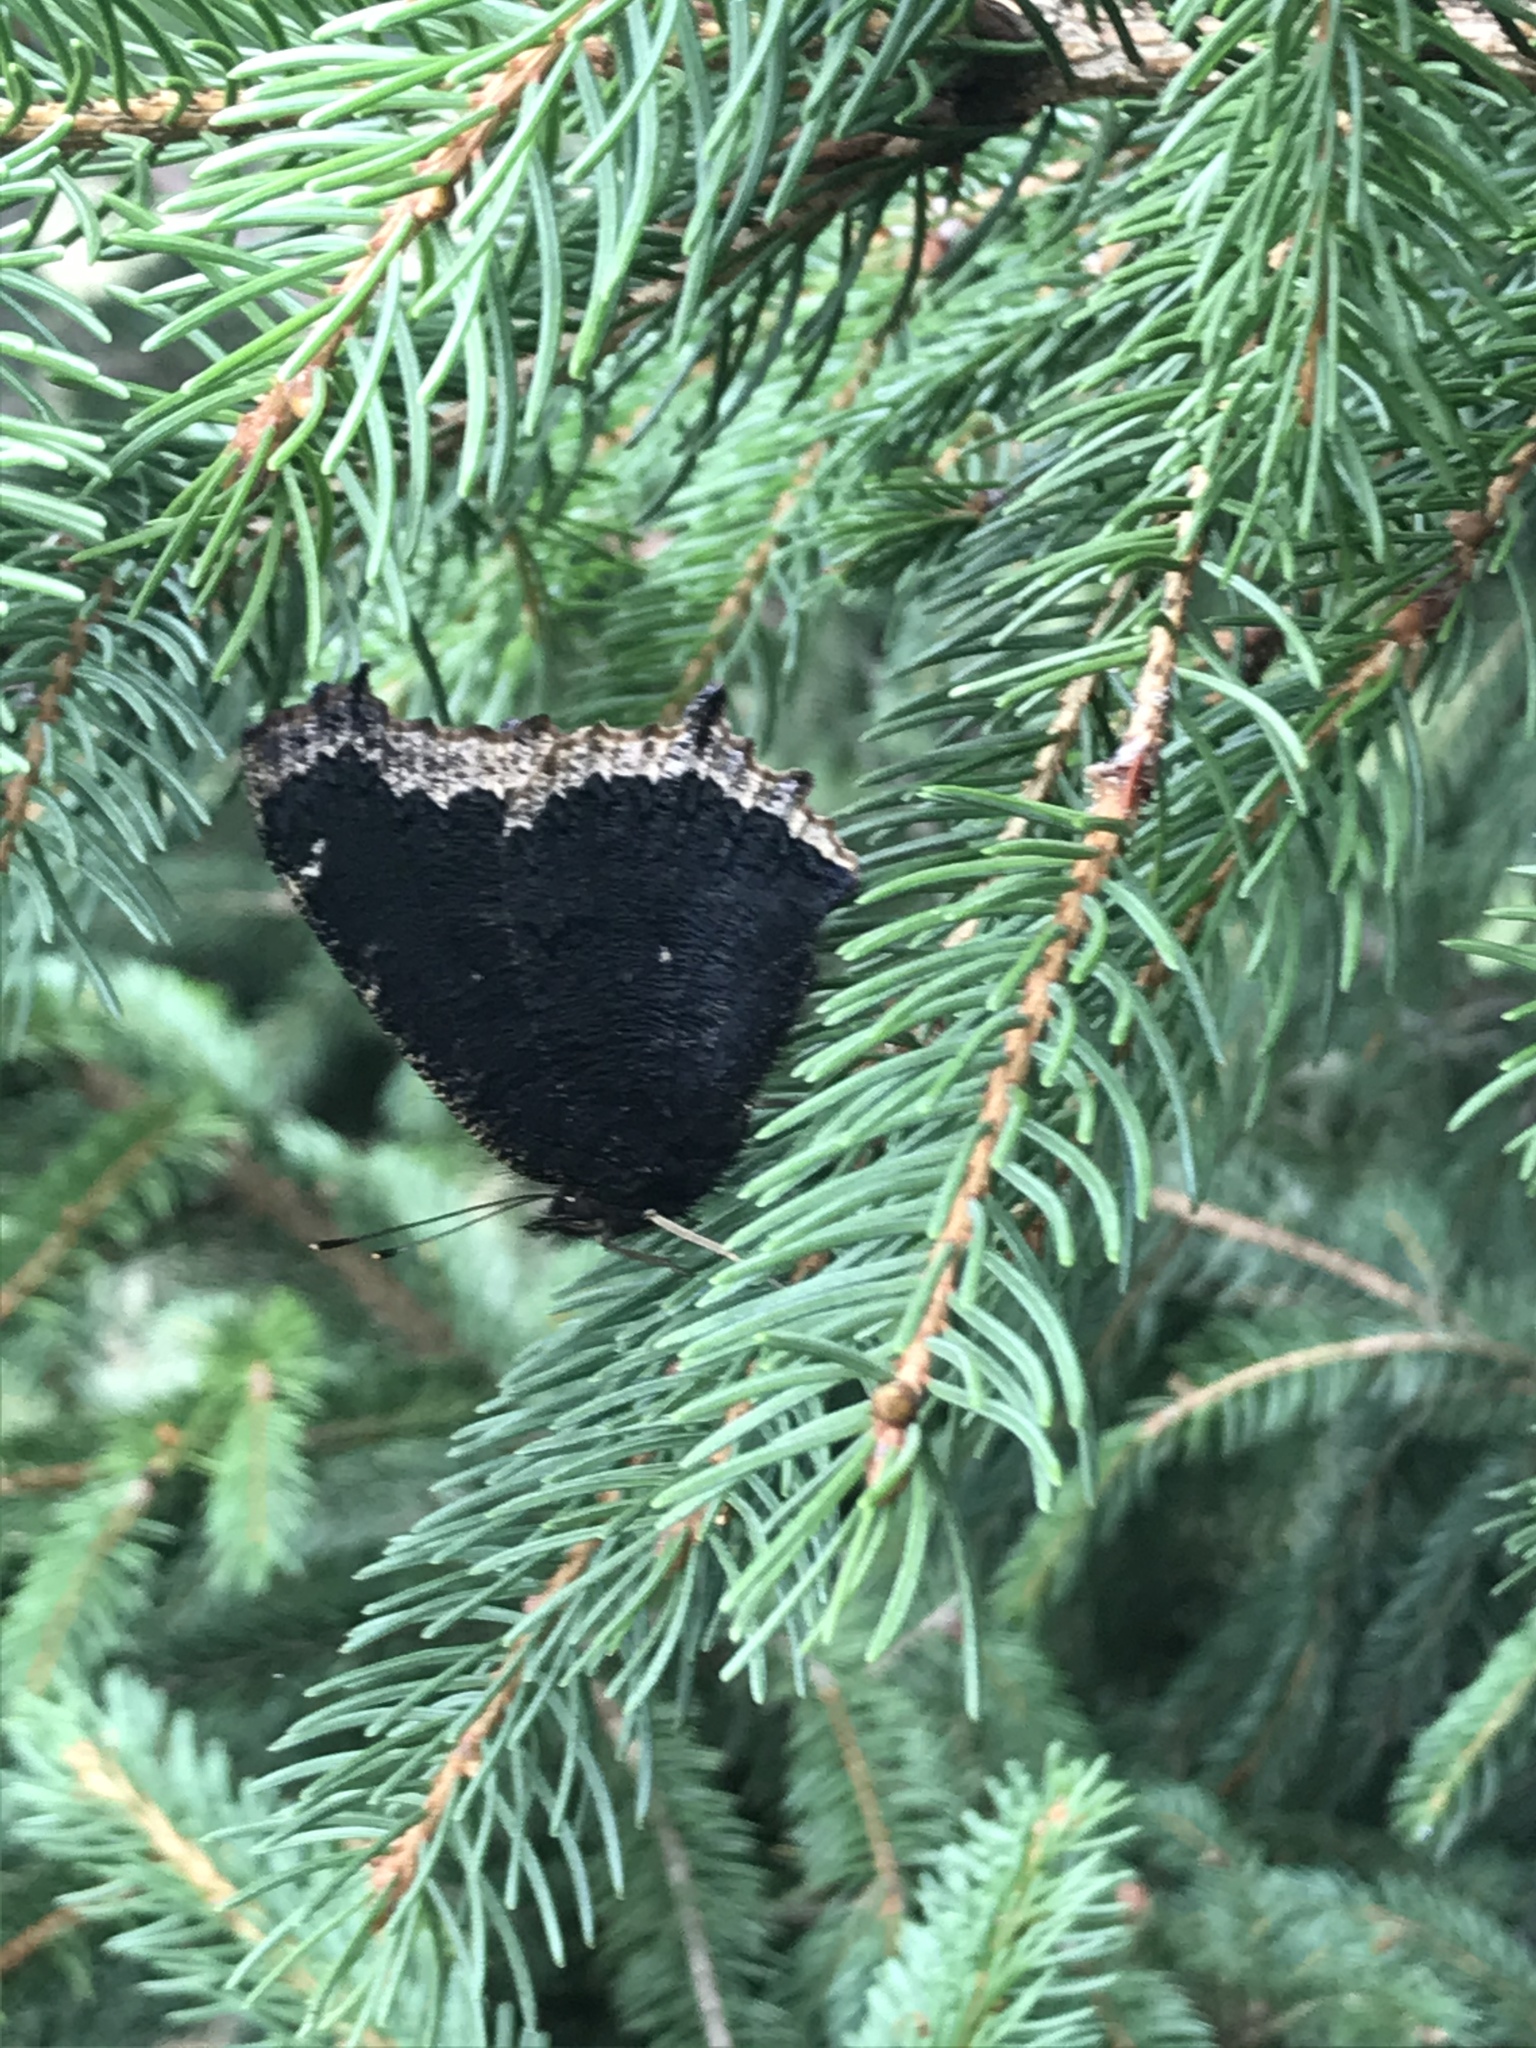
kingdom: Animalia
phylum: Arthropoda
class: Insecta
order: Lepidoptera
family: Nymphalidae
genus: Nymphalis
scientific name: Nymphalis antiopa
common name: Camberwell beauty
